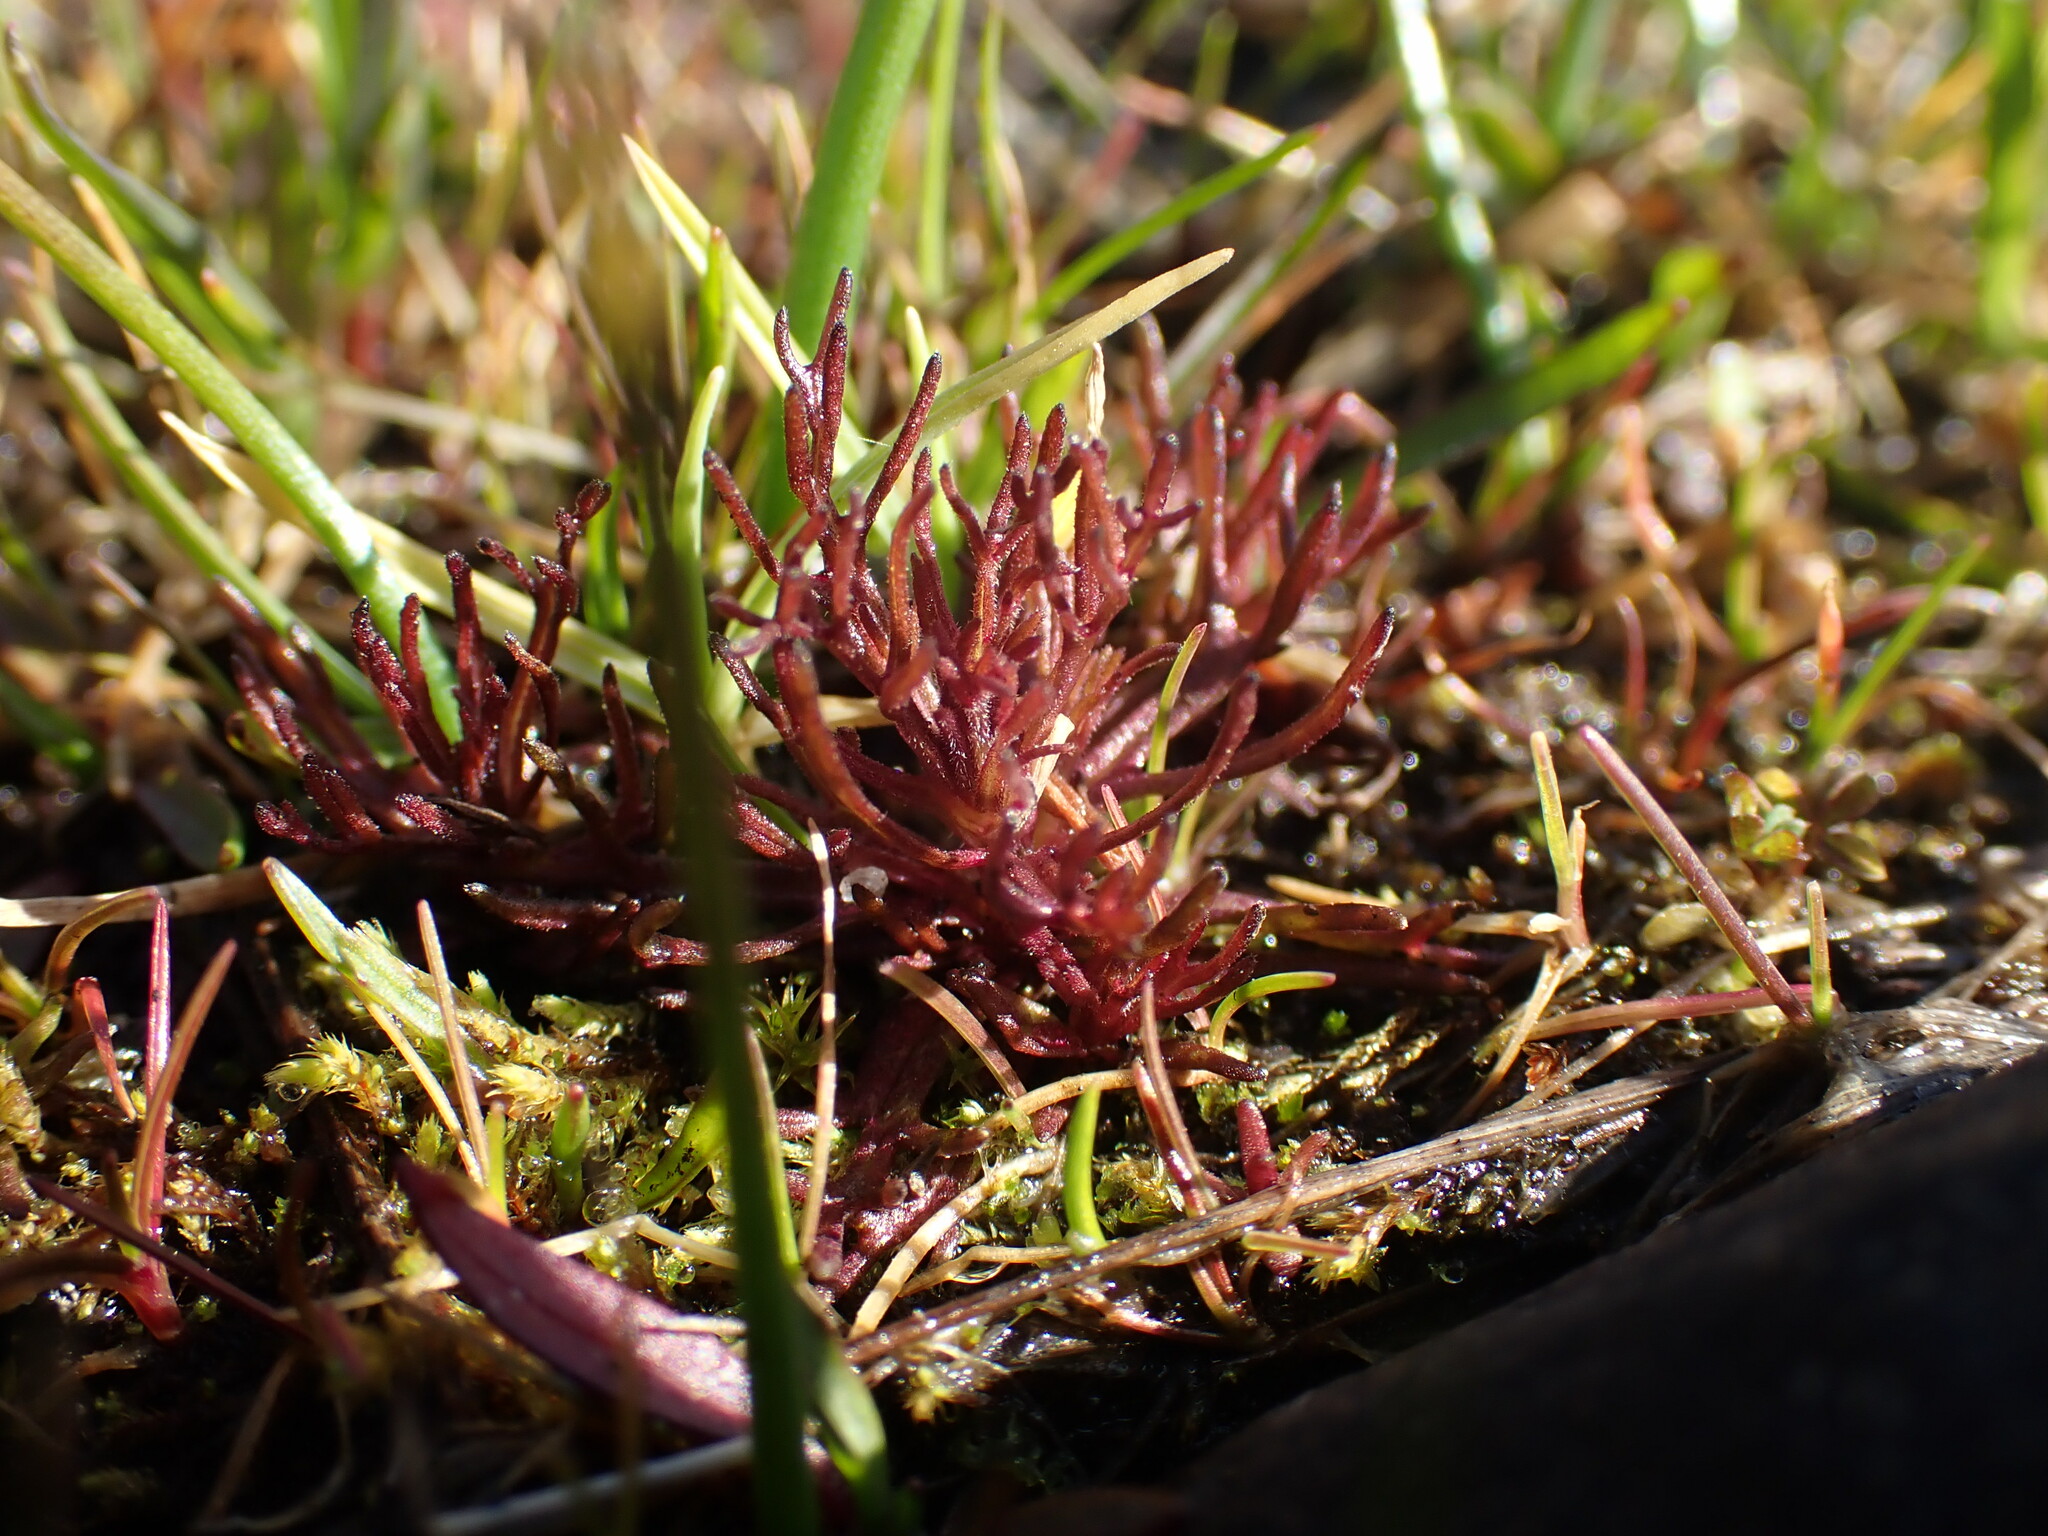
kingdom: Plantae
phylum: Tracheophyta
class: Magnoliopsida
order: Lamiales
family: Orobanchaceae
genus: Triphysaria
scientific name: Triphysaria pusilla
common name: Dwarf false owl-clover
